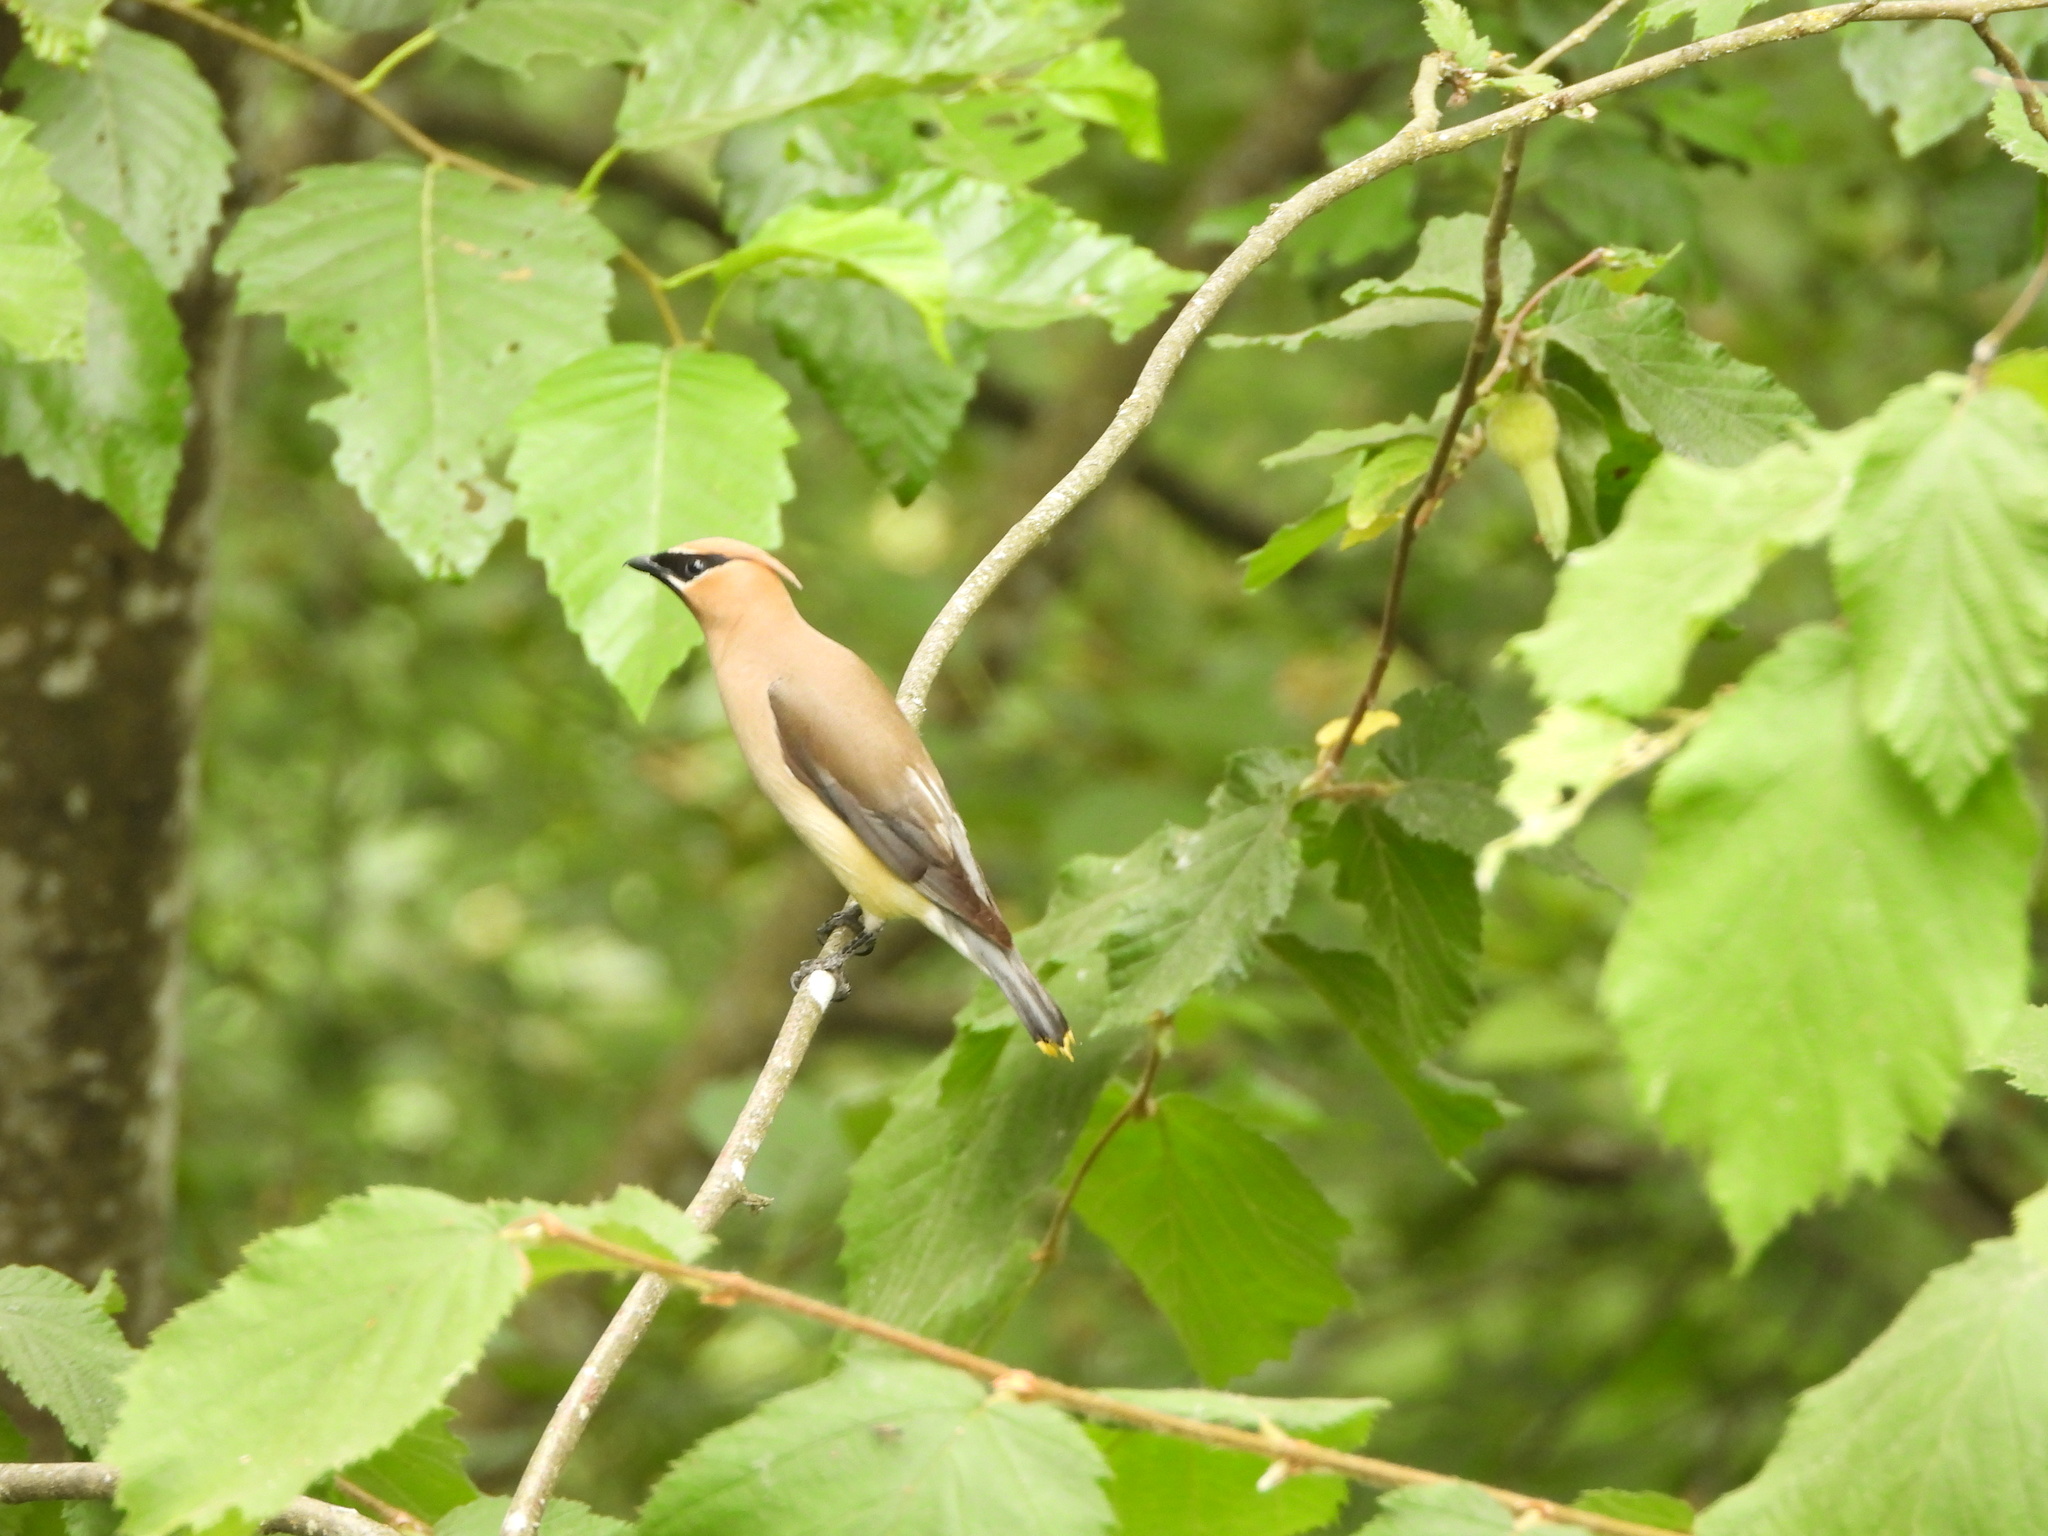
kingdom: Animalia
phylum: Chordata
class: Aves
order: Passeriformes
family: Bombycillidae
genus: Bombycilla
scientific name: Bombycilla cedrorum
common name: Cedar waxwing
